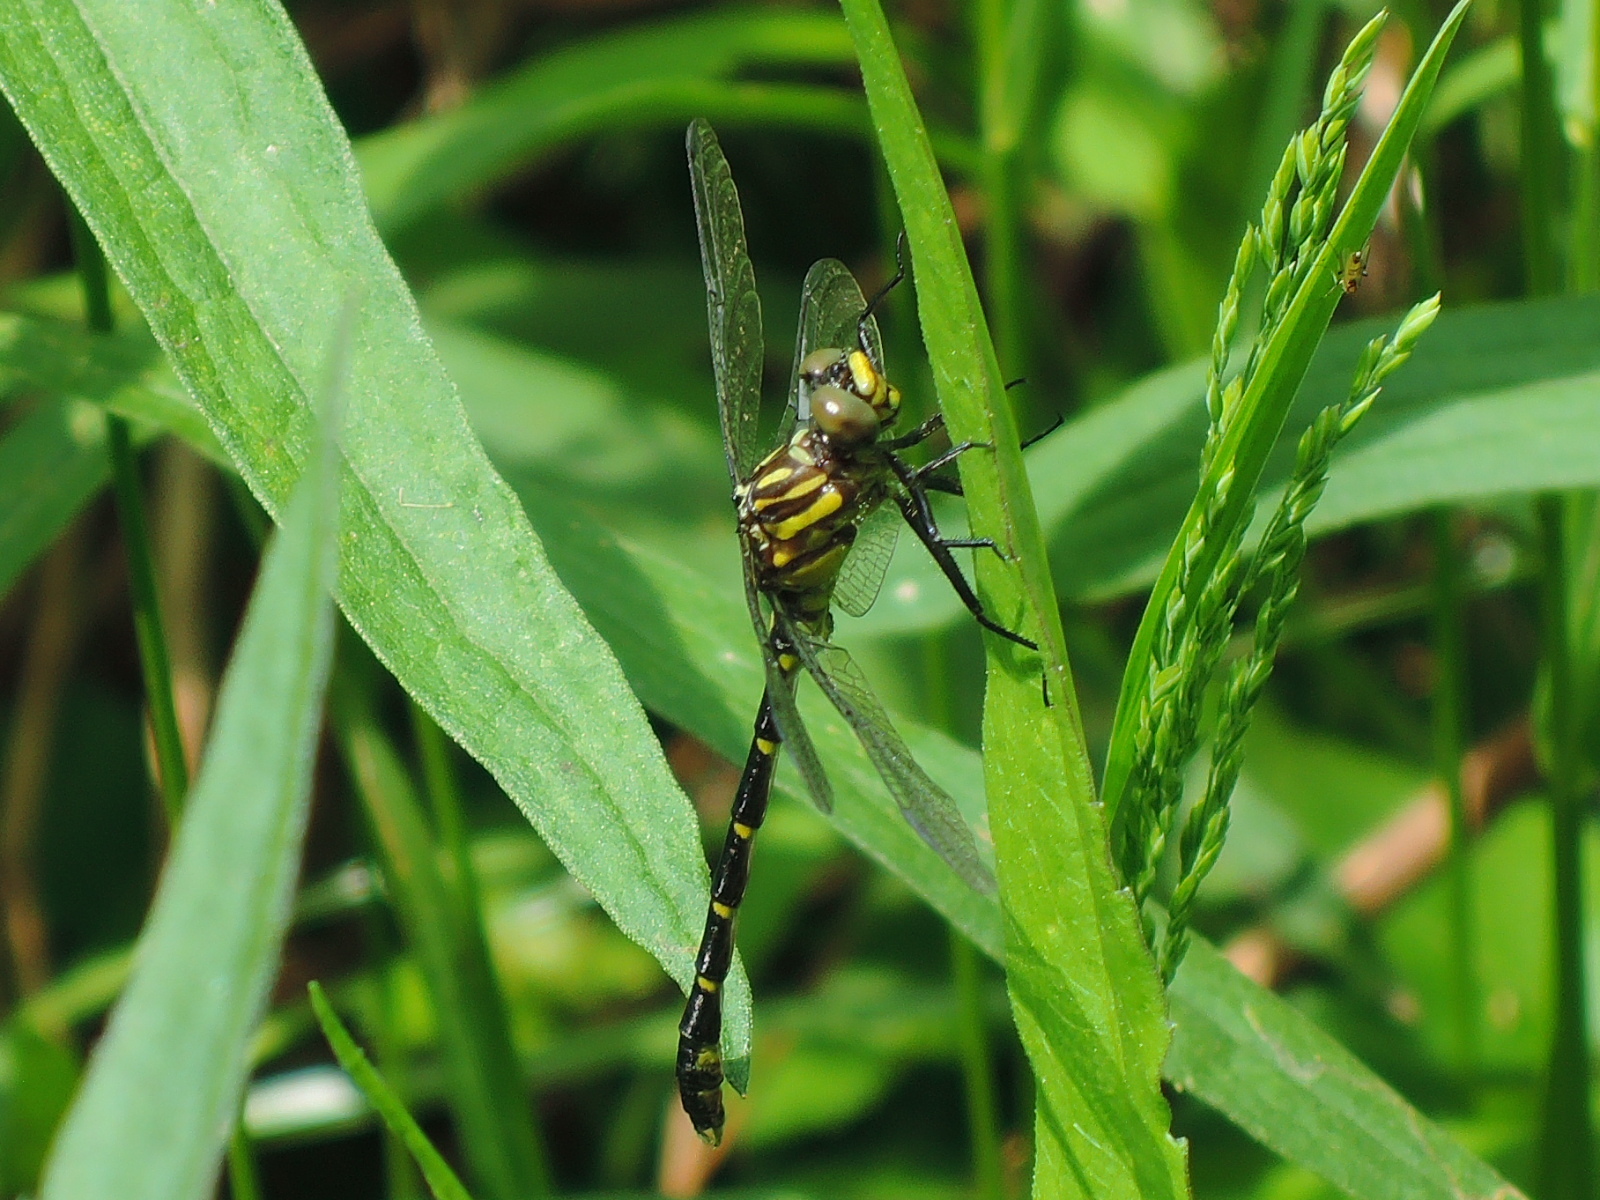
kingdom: Animalia
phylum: Arthropoda
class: Insecta
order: Odonata
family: Gomphidae
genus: Stylogomphus
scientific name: Stylogomphus albistylus
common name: Eastern least clubtail
